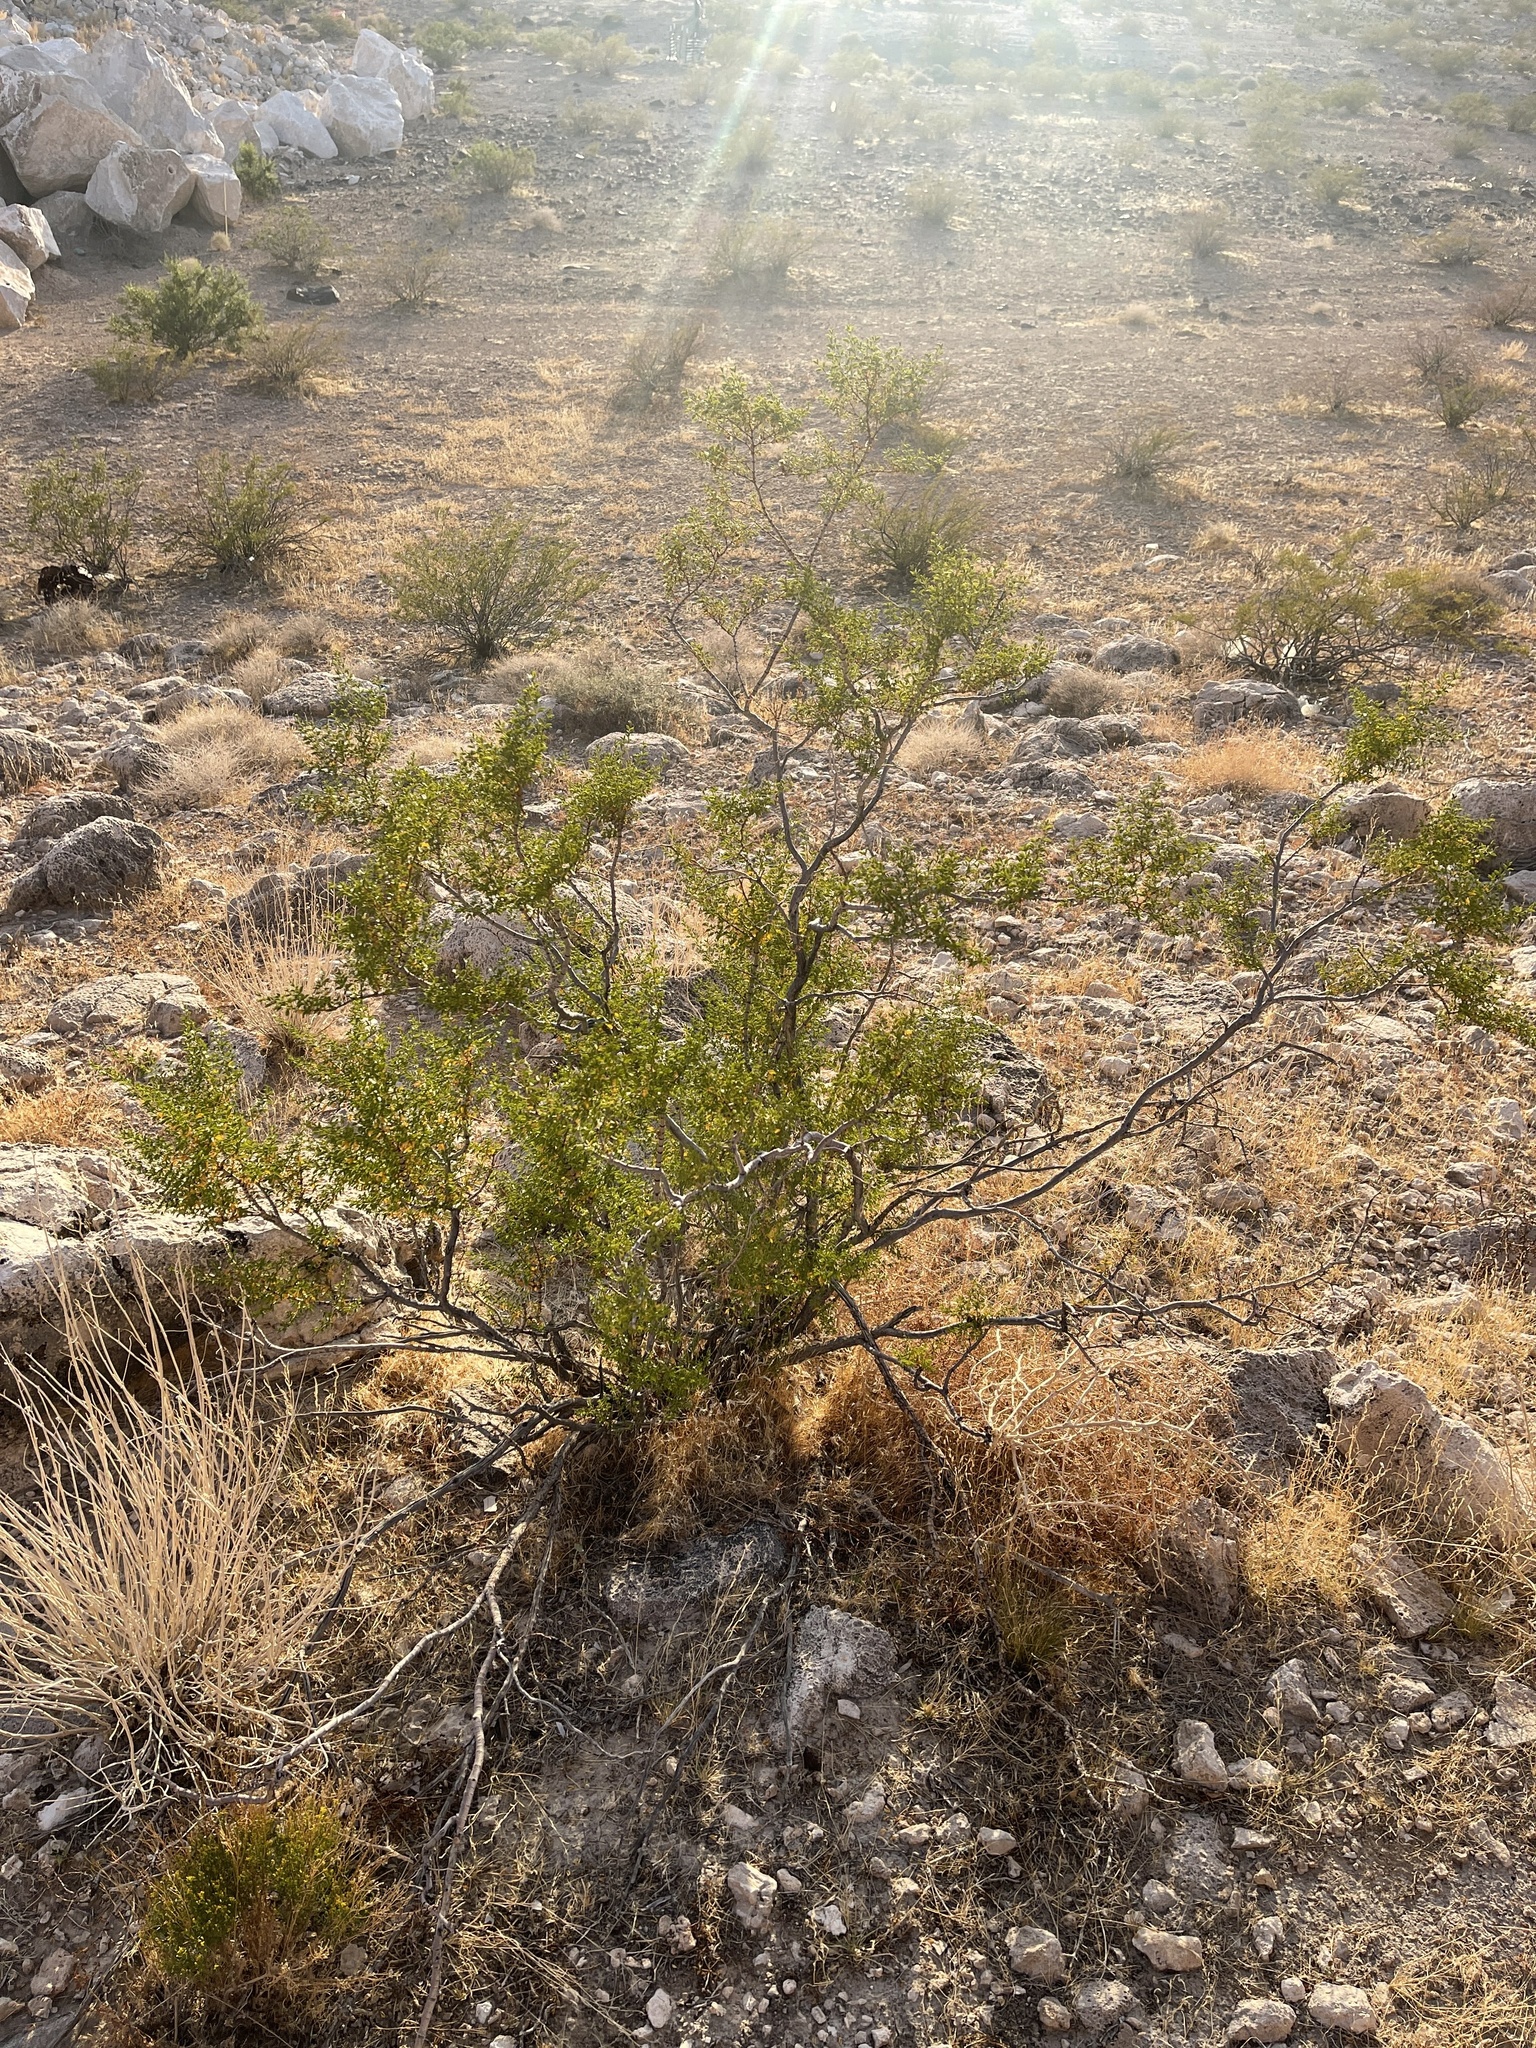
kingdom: Plantae
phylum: Tracheophyta
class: Magnoliopsida
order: Zygophyllales
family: Zygophyllaceae
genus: Larrea
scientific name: Larrea tridentata
